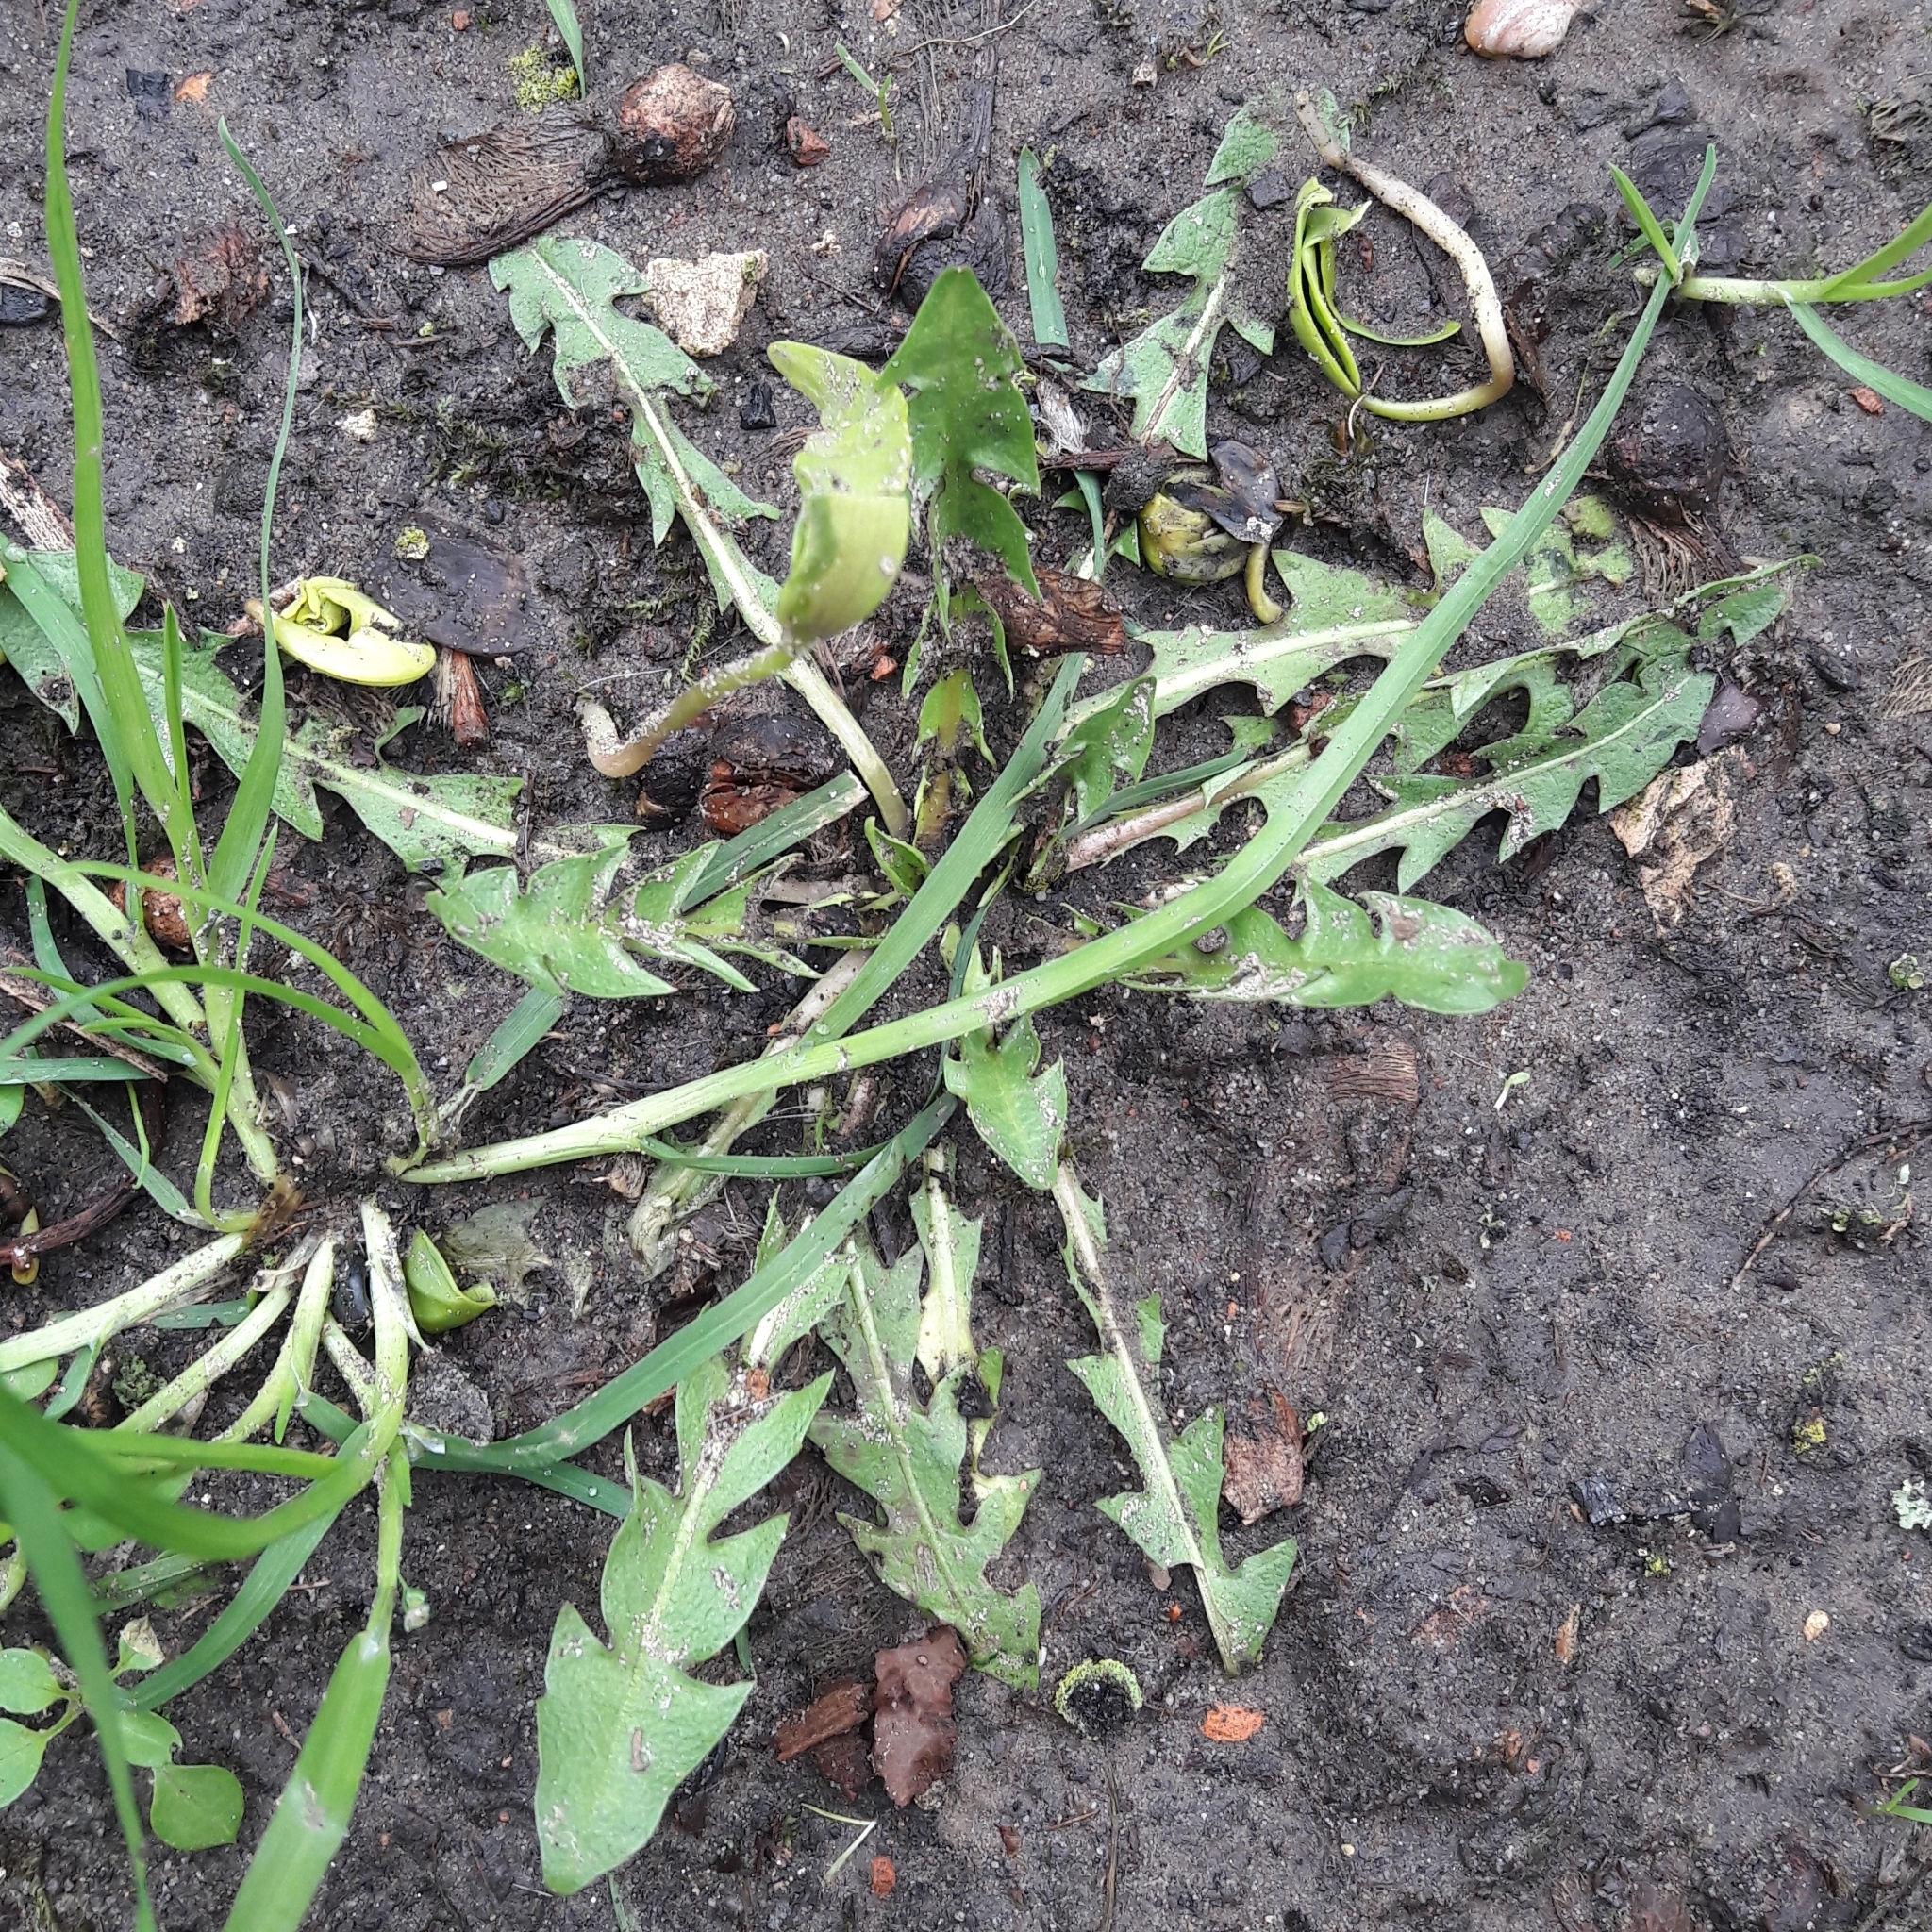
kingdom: Plantae
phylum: Tracheophyta
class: Magnoliopsida
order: Asterales
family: Asteraceae
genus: Taraxacum
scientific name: Taraxacum officinale
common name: Common dandelion
